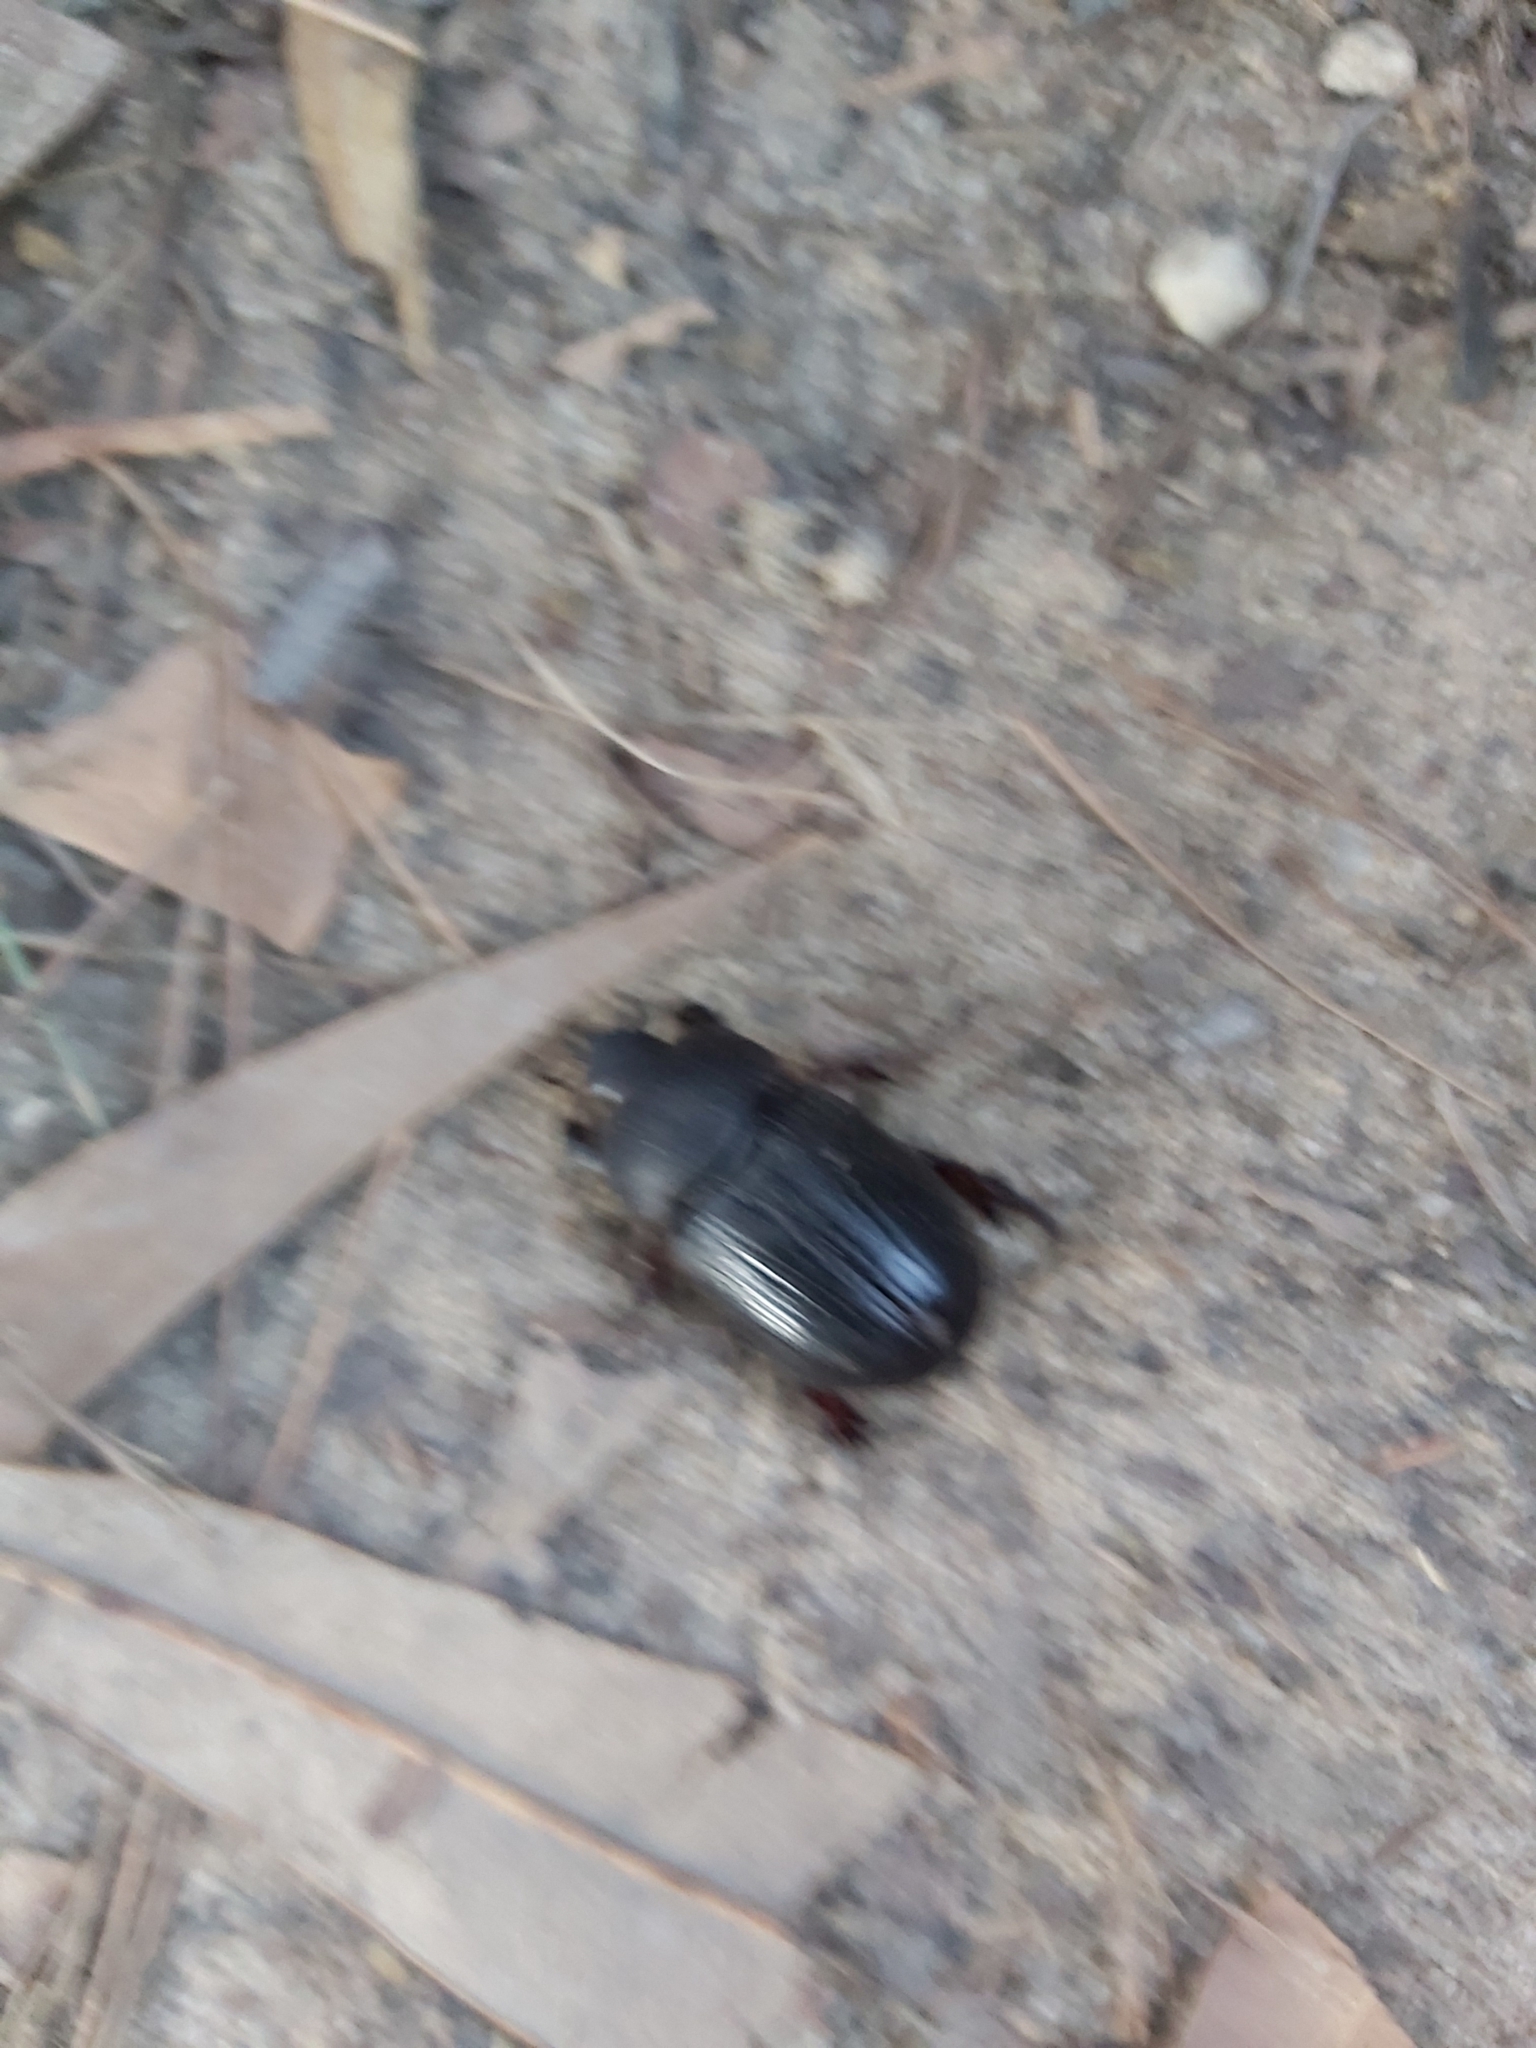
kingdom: Animalia
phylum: Arthropoda
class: Insecta
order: Coleoptera
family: Scarabaeidae
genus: Heteronychus
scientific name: Heteronychus arator
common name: African black beetle
